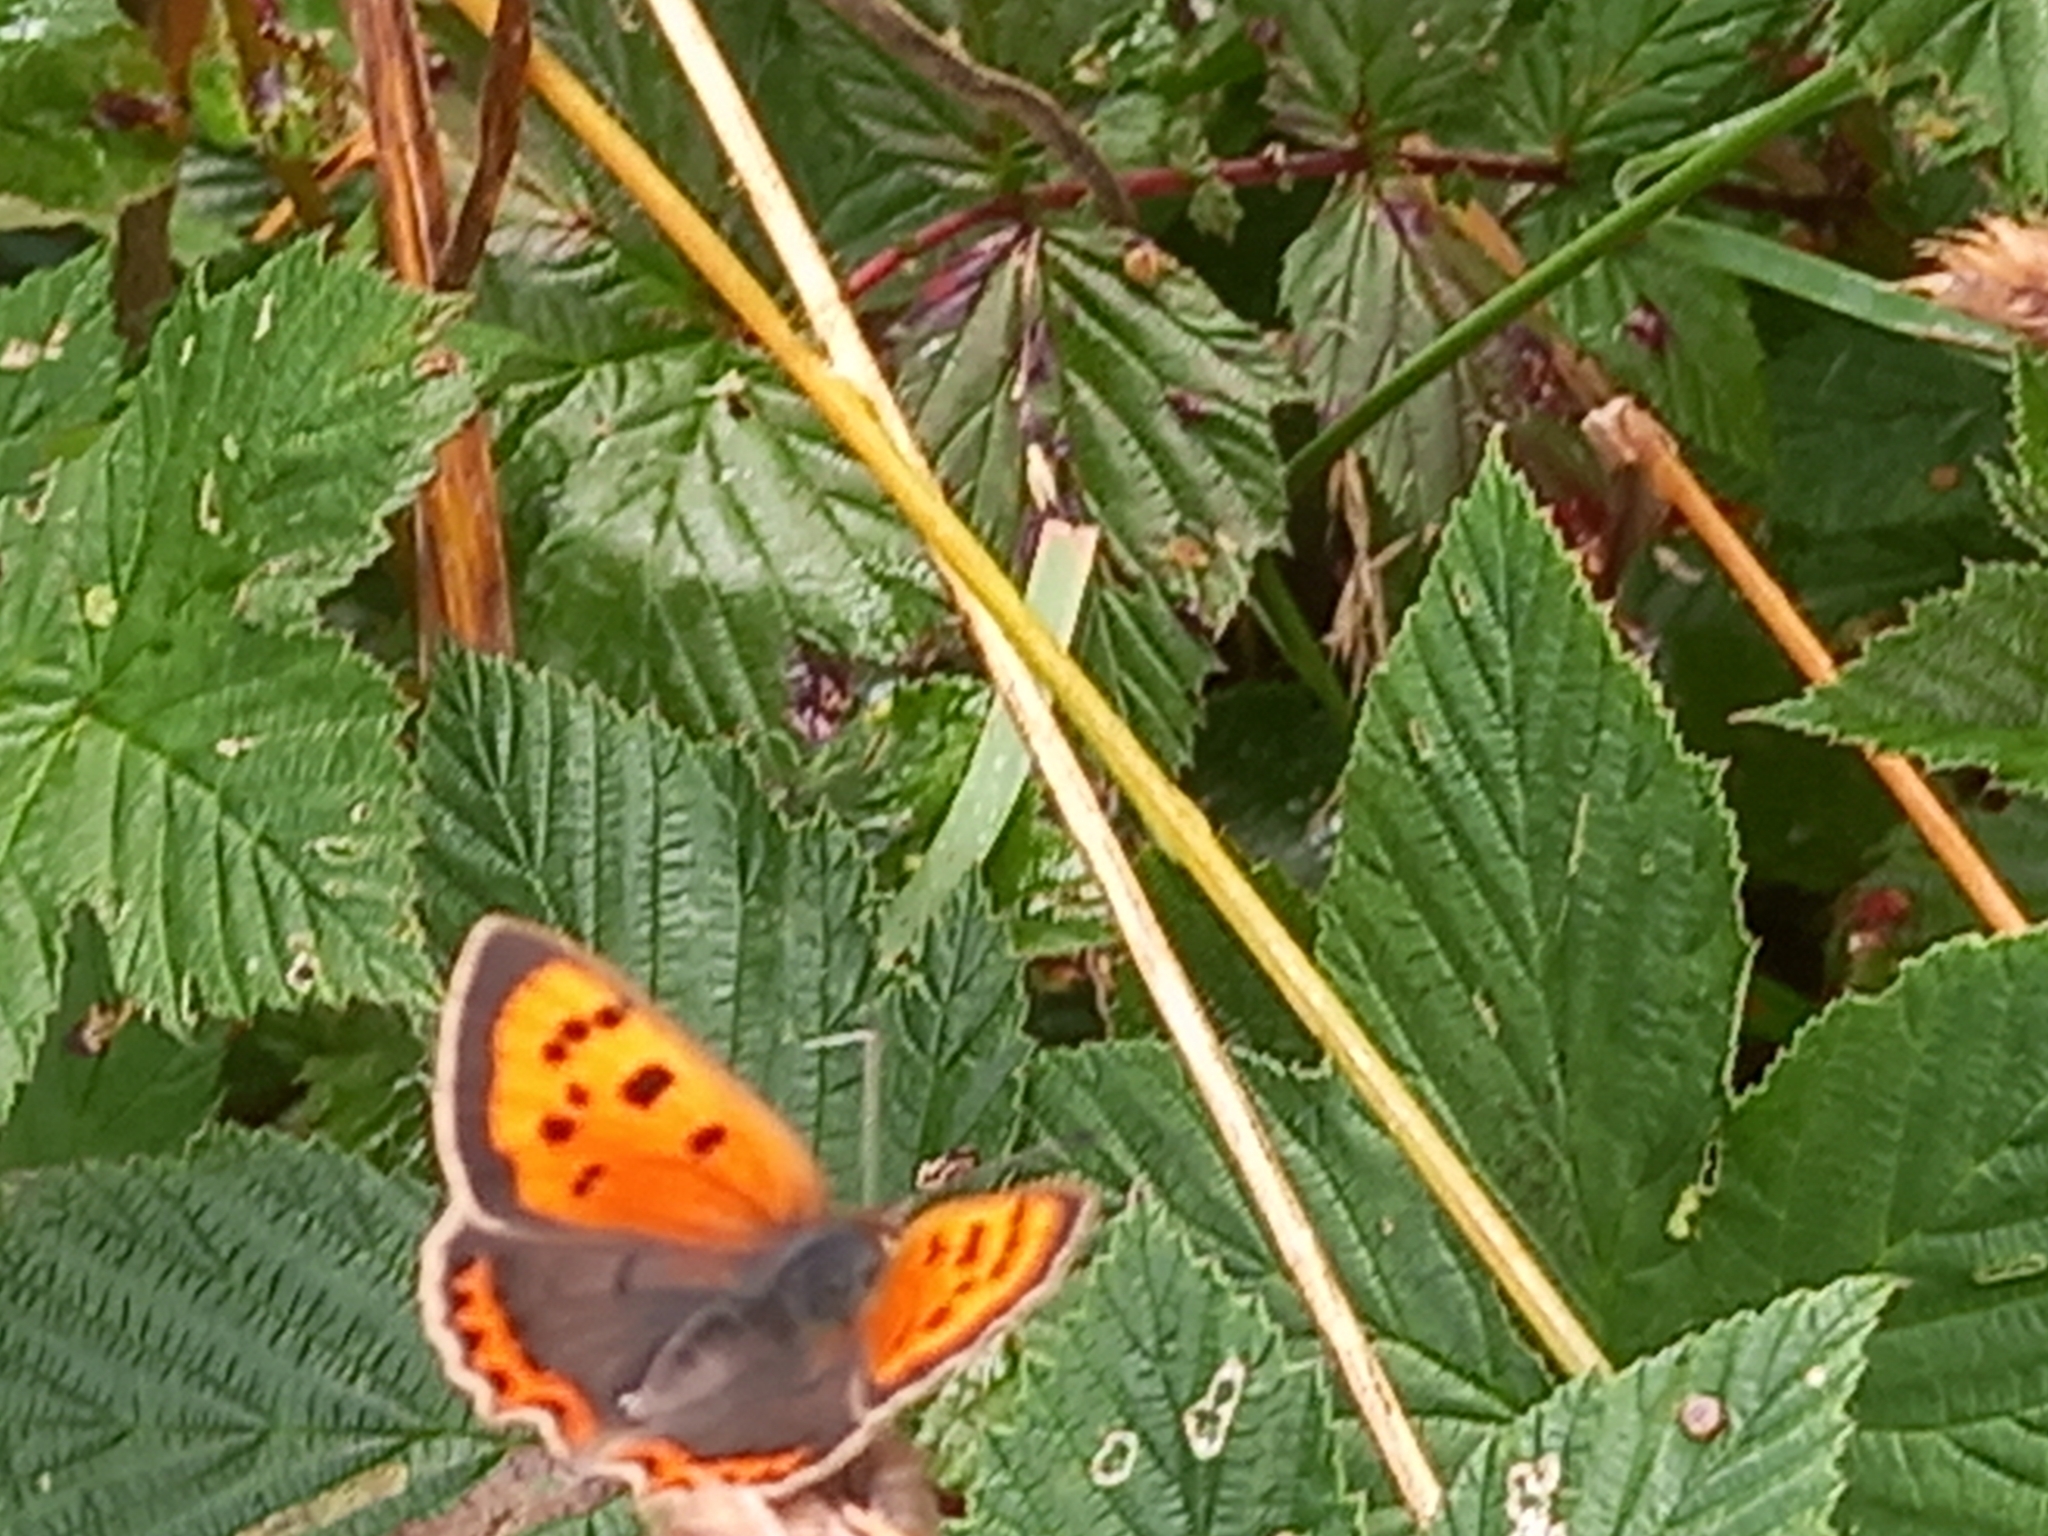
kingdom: Animalia
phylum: Arthropoda
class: Insecta
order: Lepidoptera
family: Lycaenidae
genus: Lycaena
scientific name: Lycaena phlaeas
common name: Small copper
